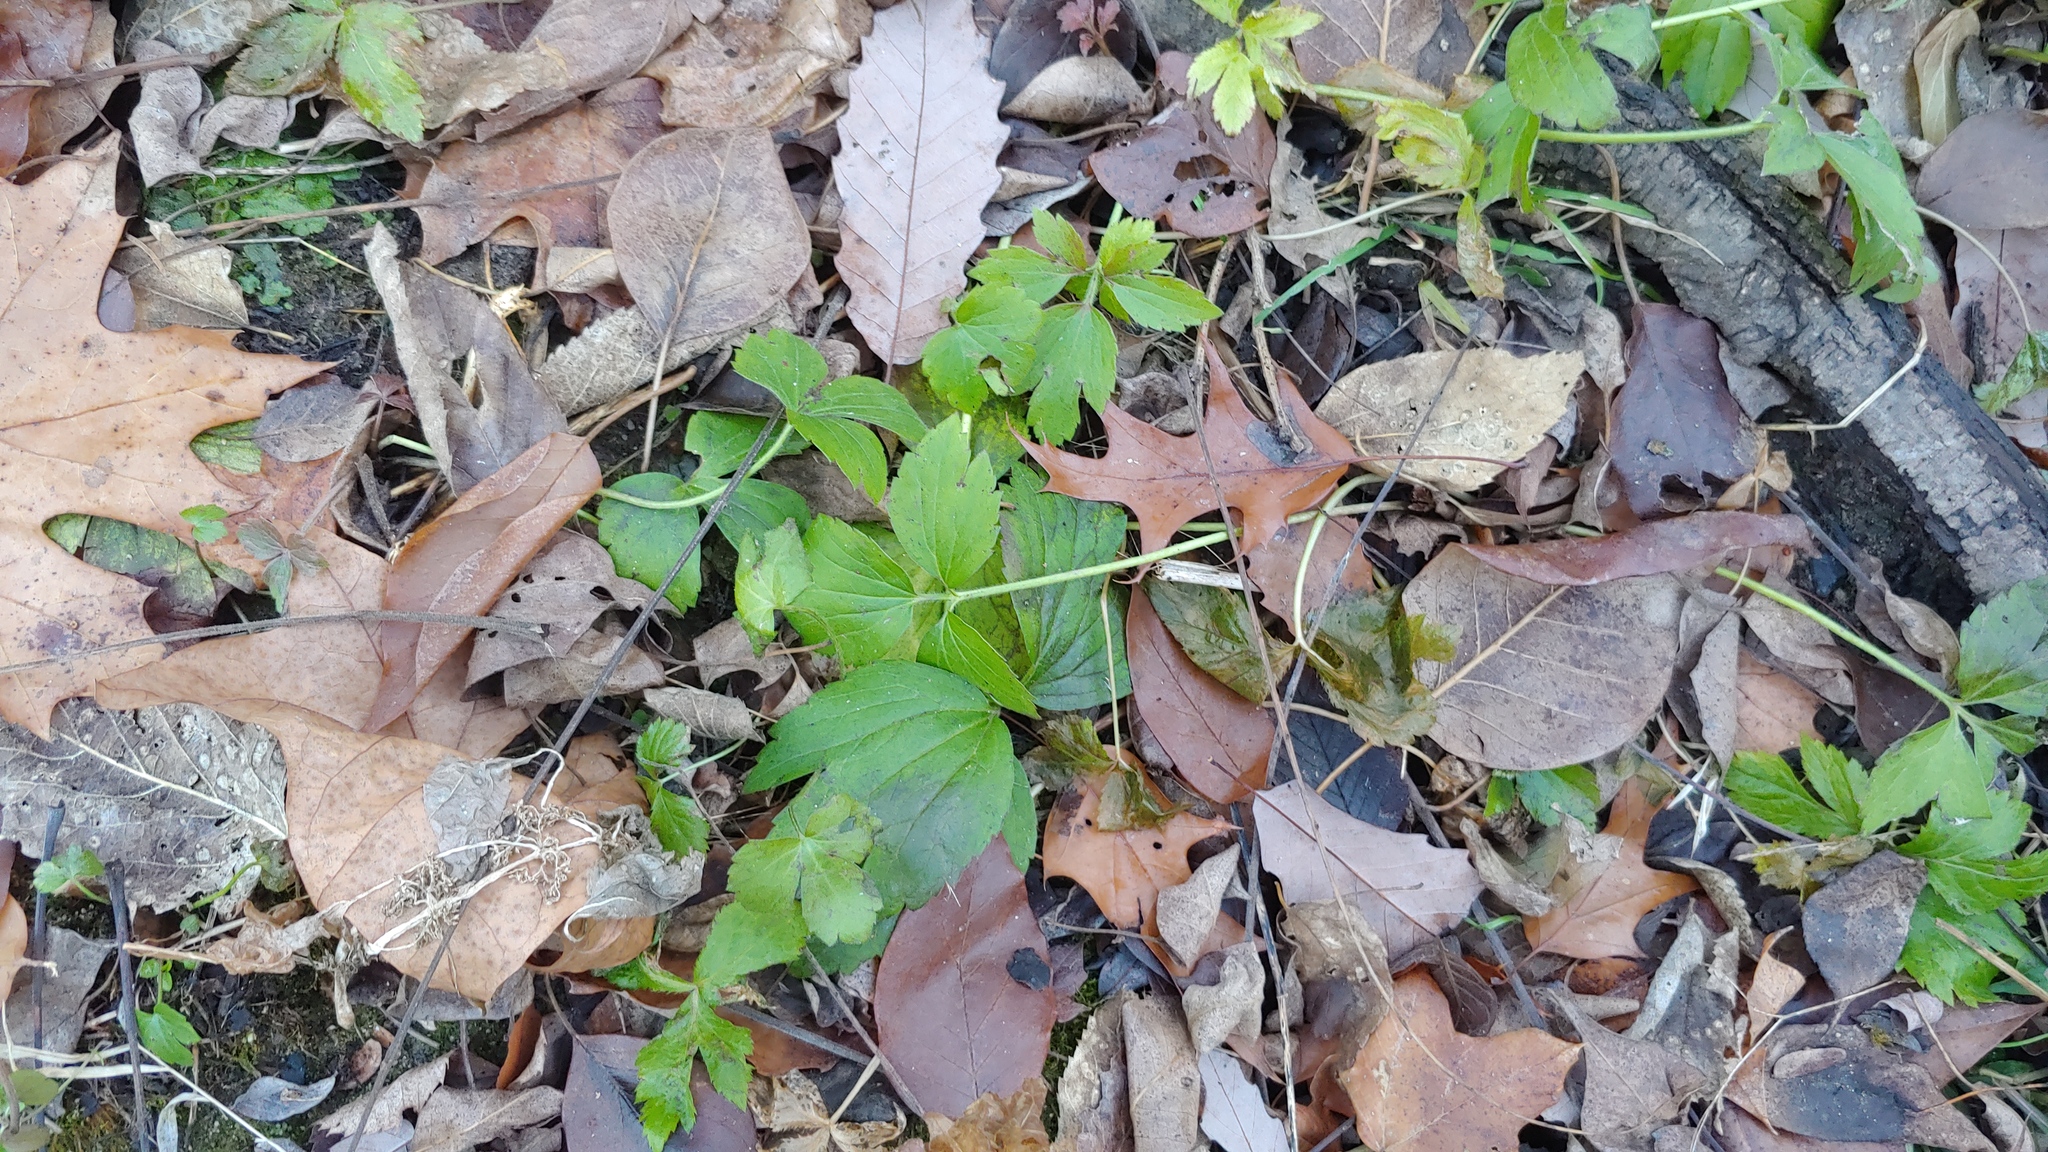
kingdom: Plantae
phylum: Tracheophyta
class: Magnoliopsida
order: Ranunculales
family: Ranunculaceae
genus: Ranunculus
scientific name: Ranunculus hispidus
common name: Bristly buttercup
